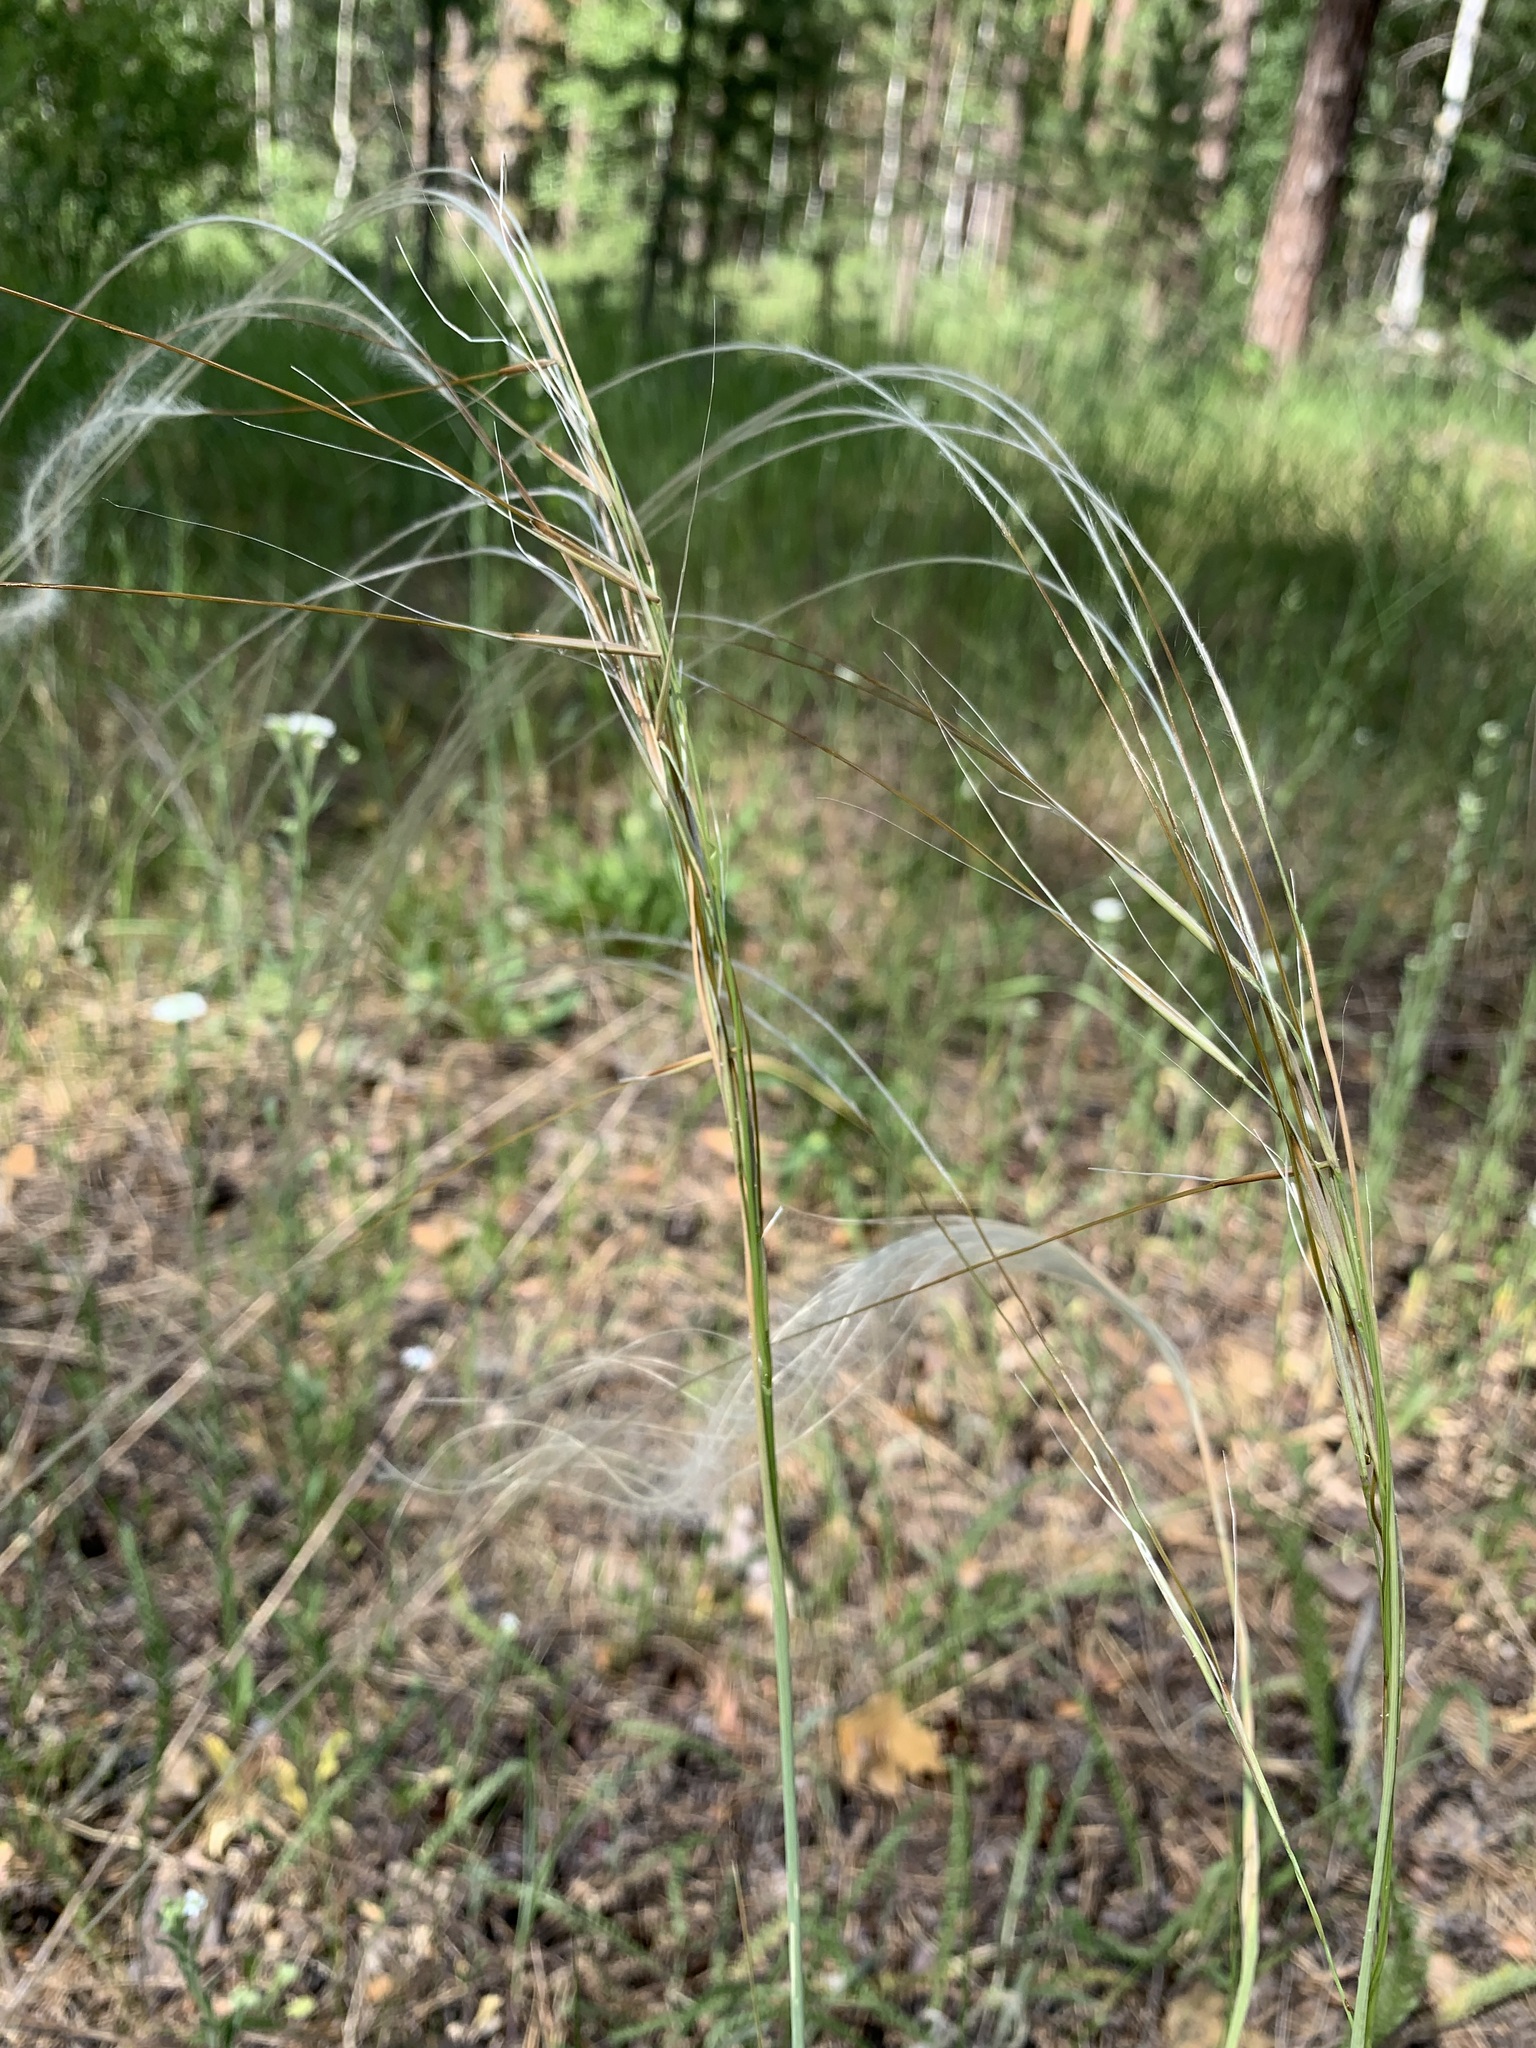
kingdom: Plantae
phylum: Tracheophyta
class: Liliopsida
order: Poales
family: Poaceae
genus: Stipa
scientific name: Stipa pennata
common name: European feather grass
